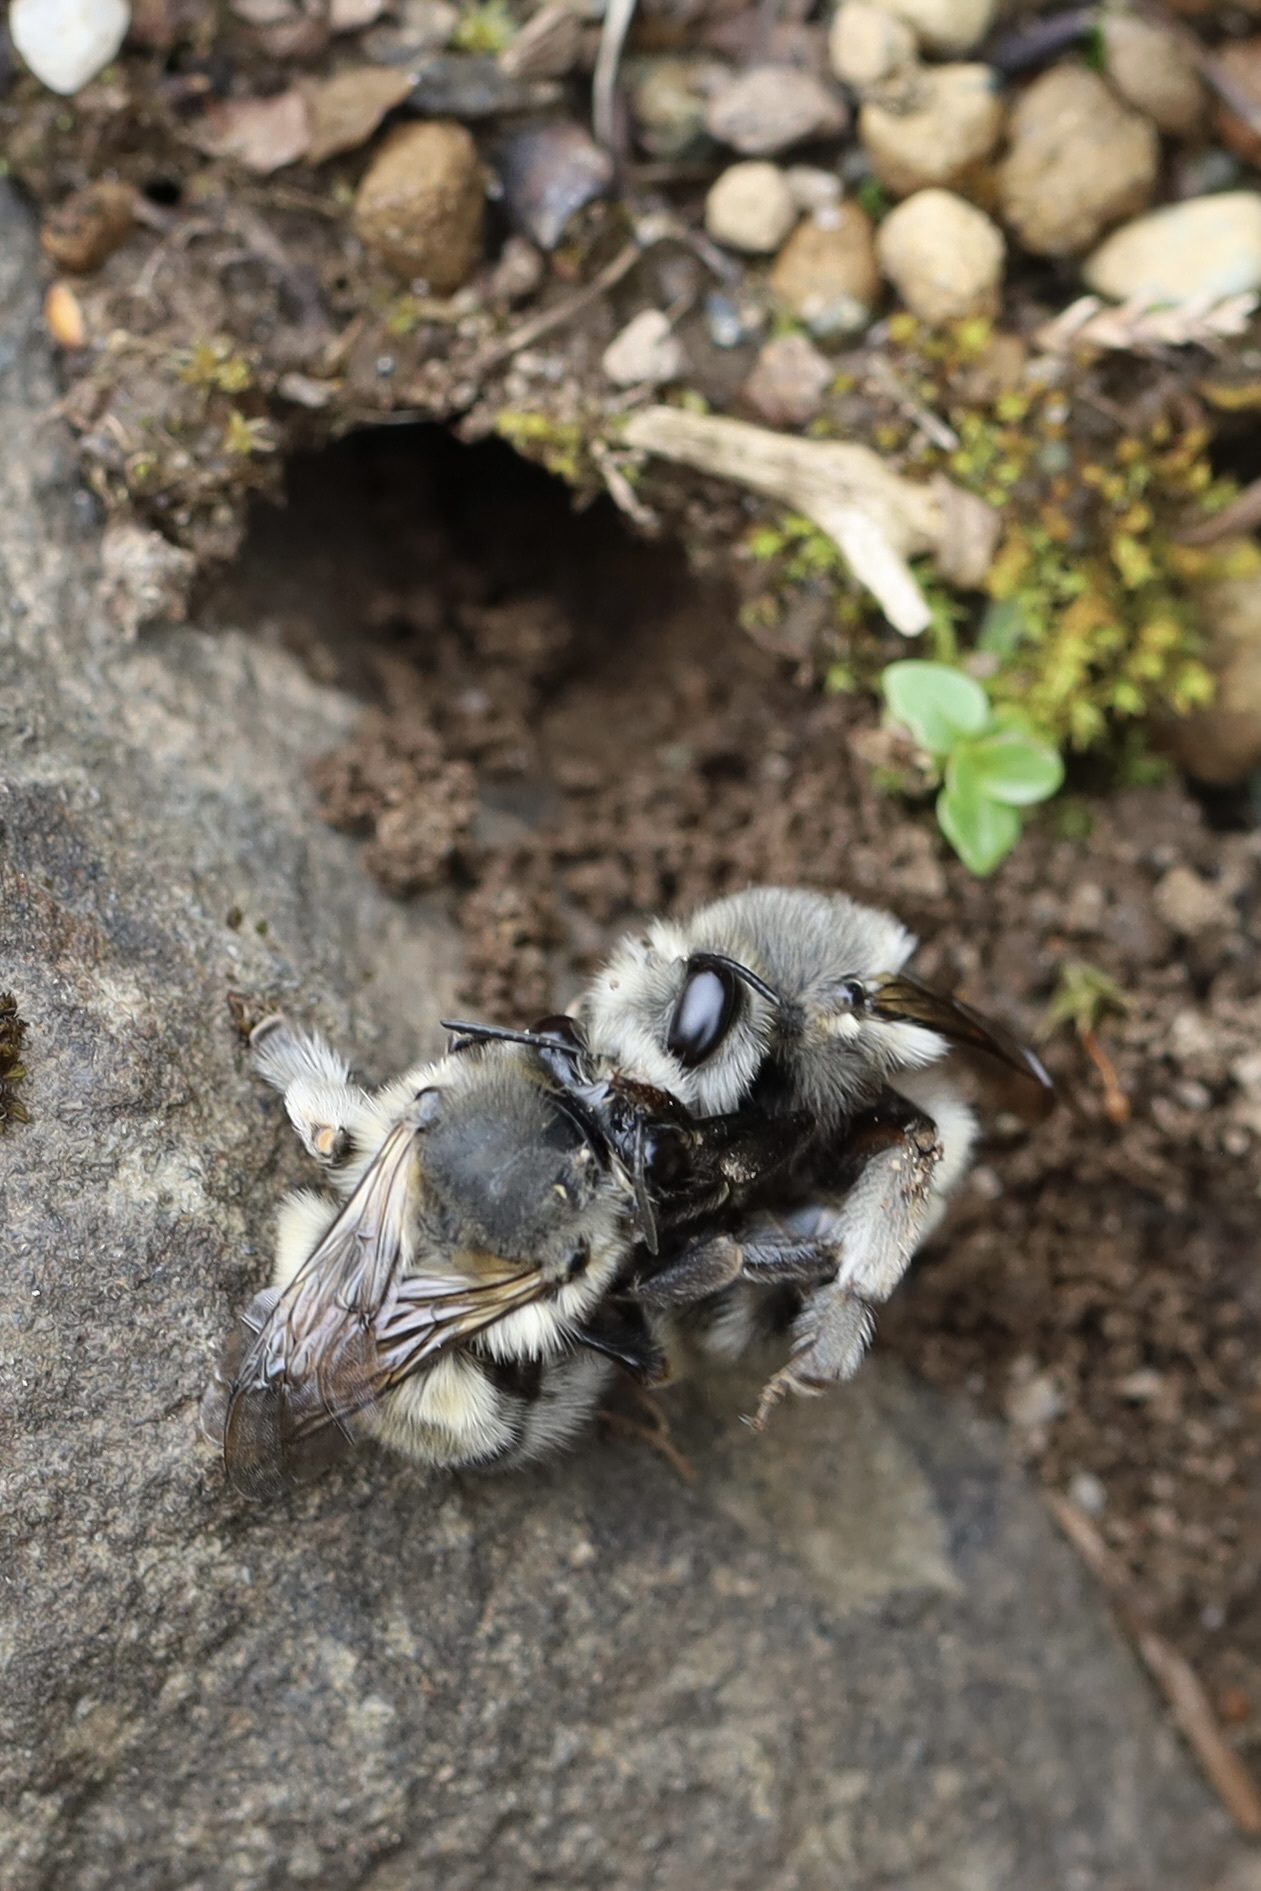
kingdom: Animalia
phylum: Arthropoda
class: Insecta
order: Hymenoptera
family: Apidae
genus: Anthophora
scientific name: Anthophora pacifica
